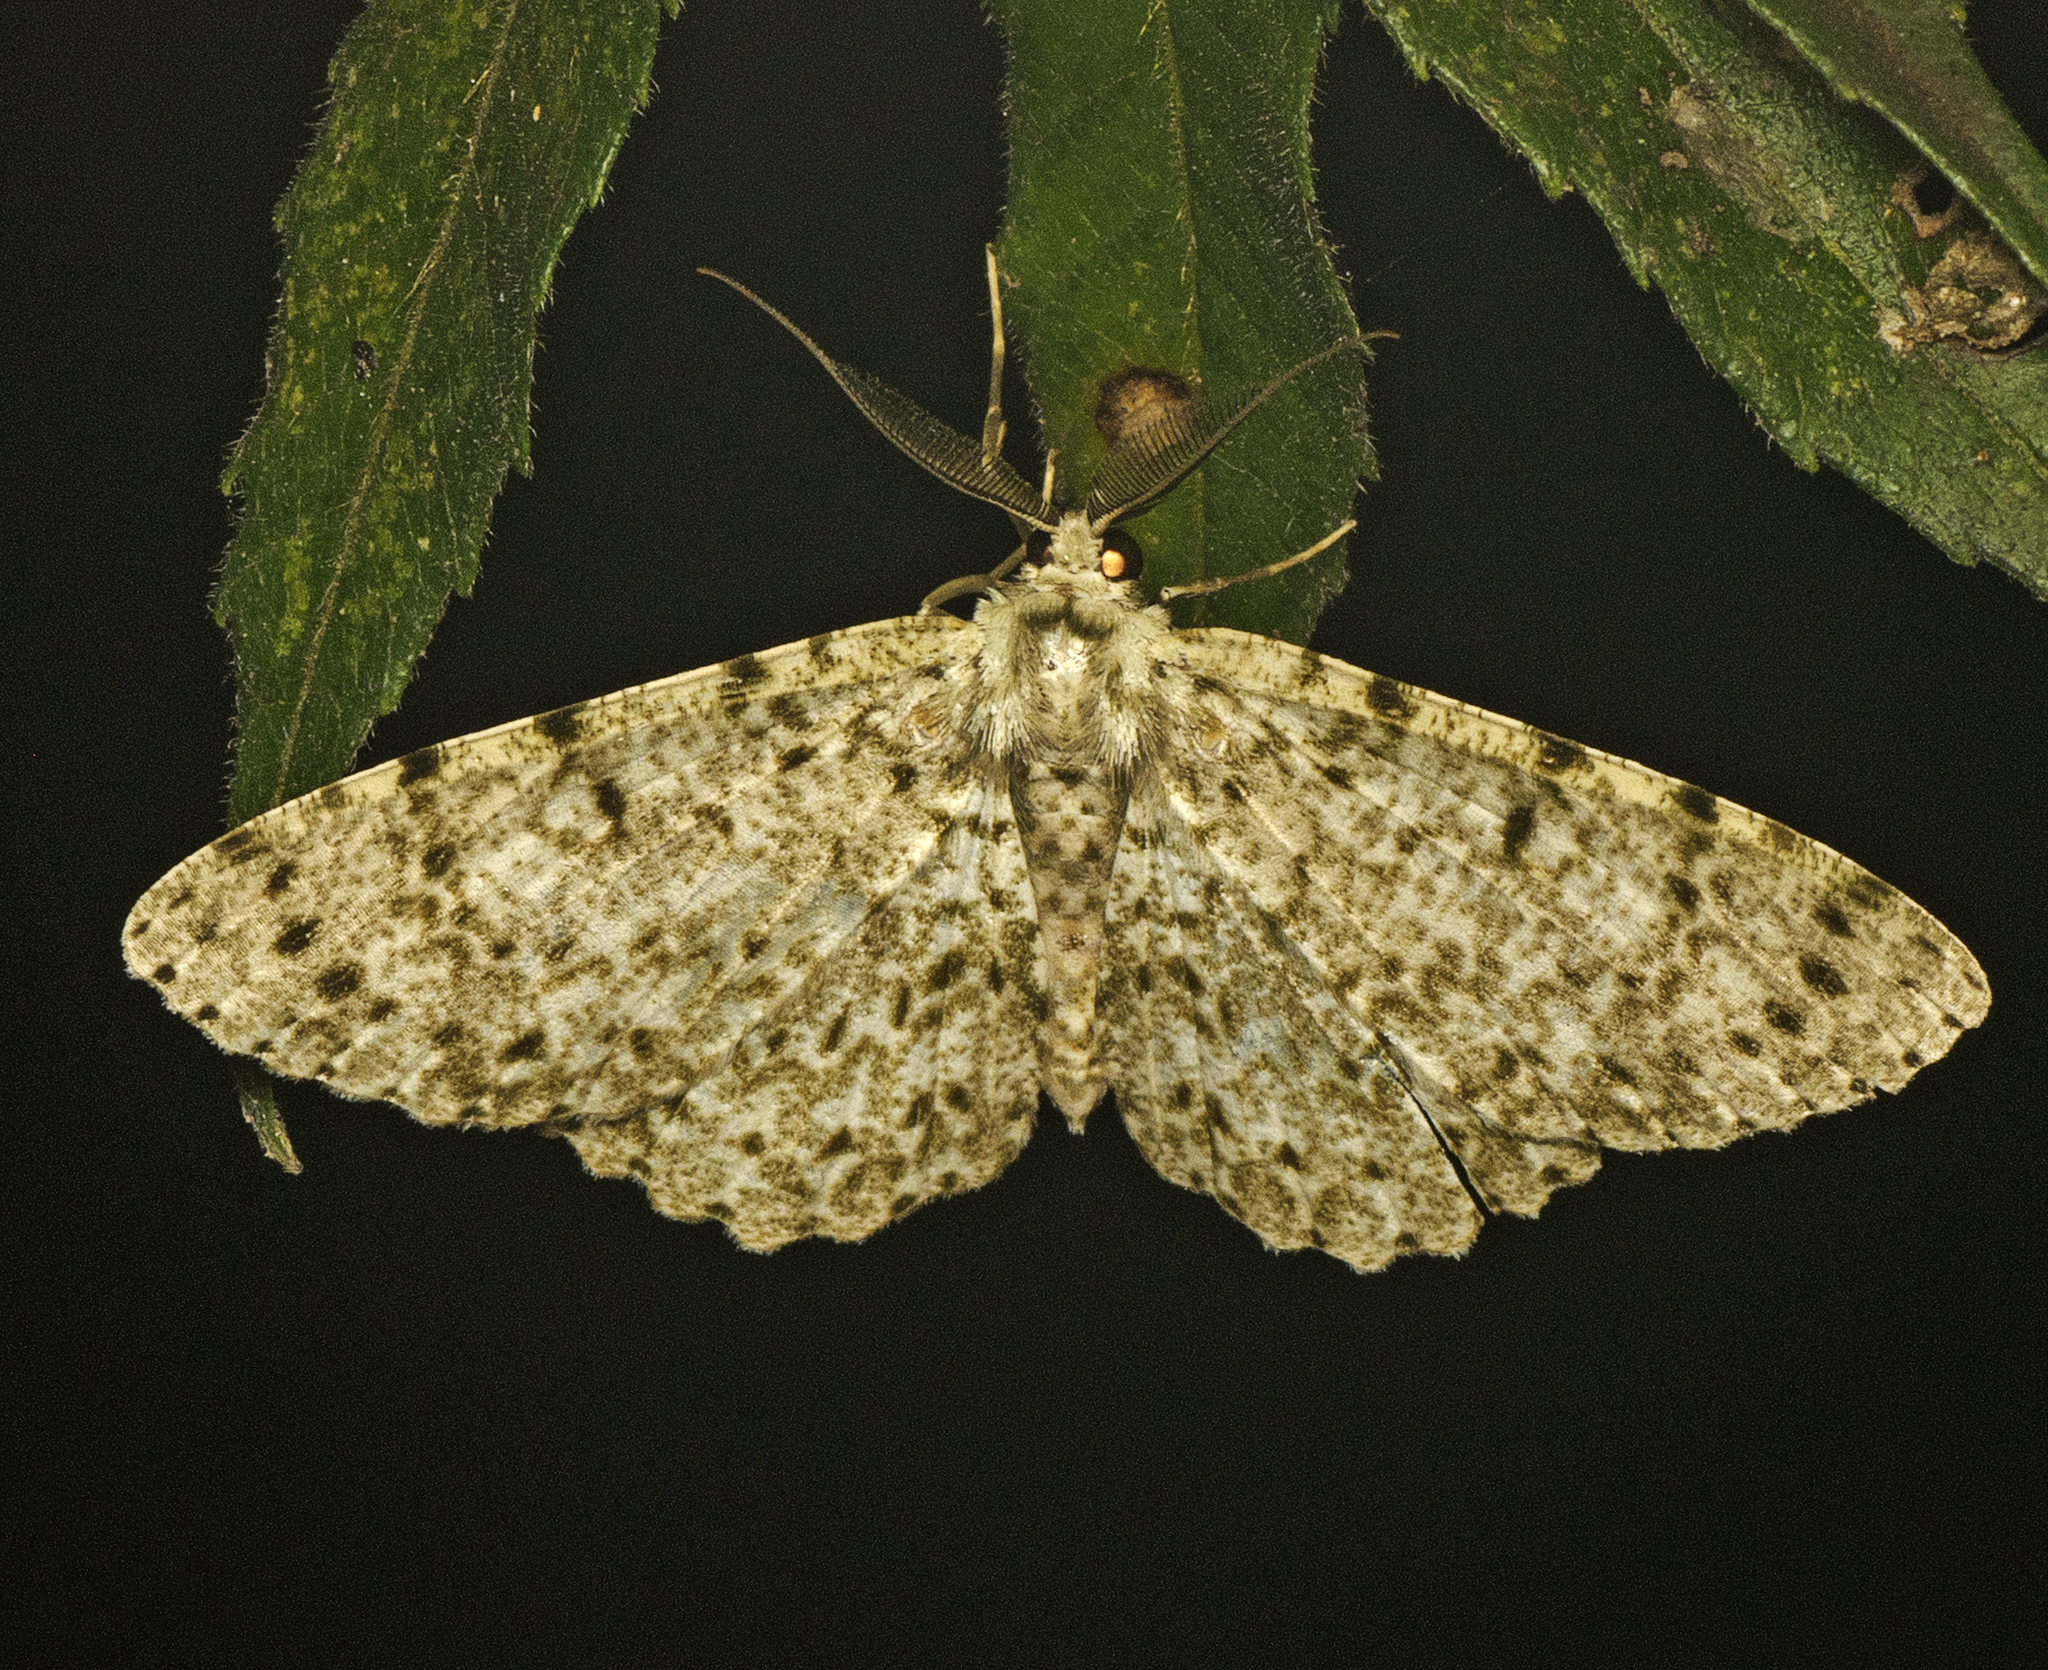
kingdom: Animalia
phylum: Arthropoda
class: Insecta
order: Lepidoptera
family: Geometridae
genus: Catoria
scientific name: Catoria camelaria
